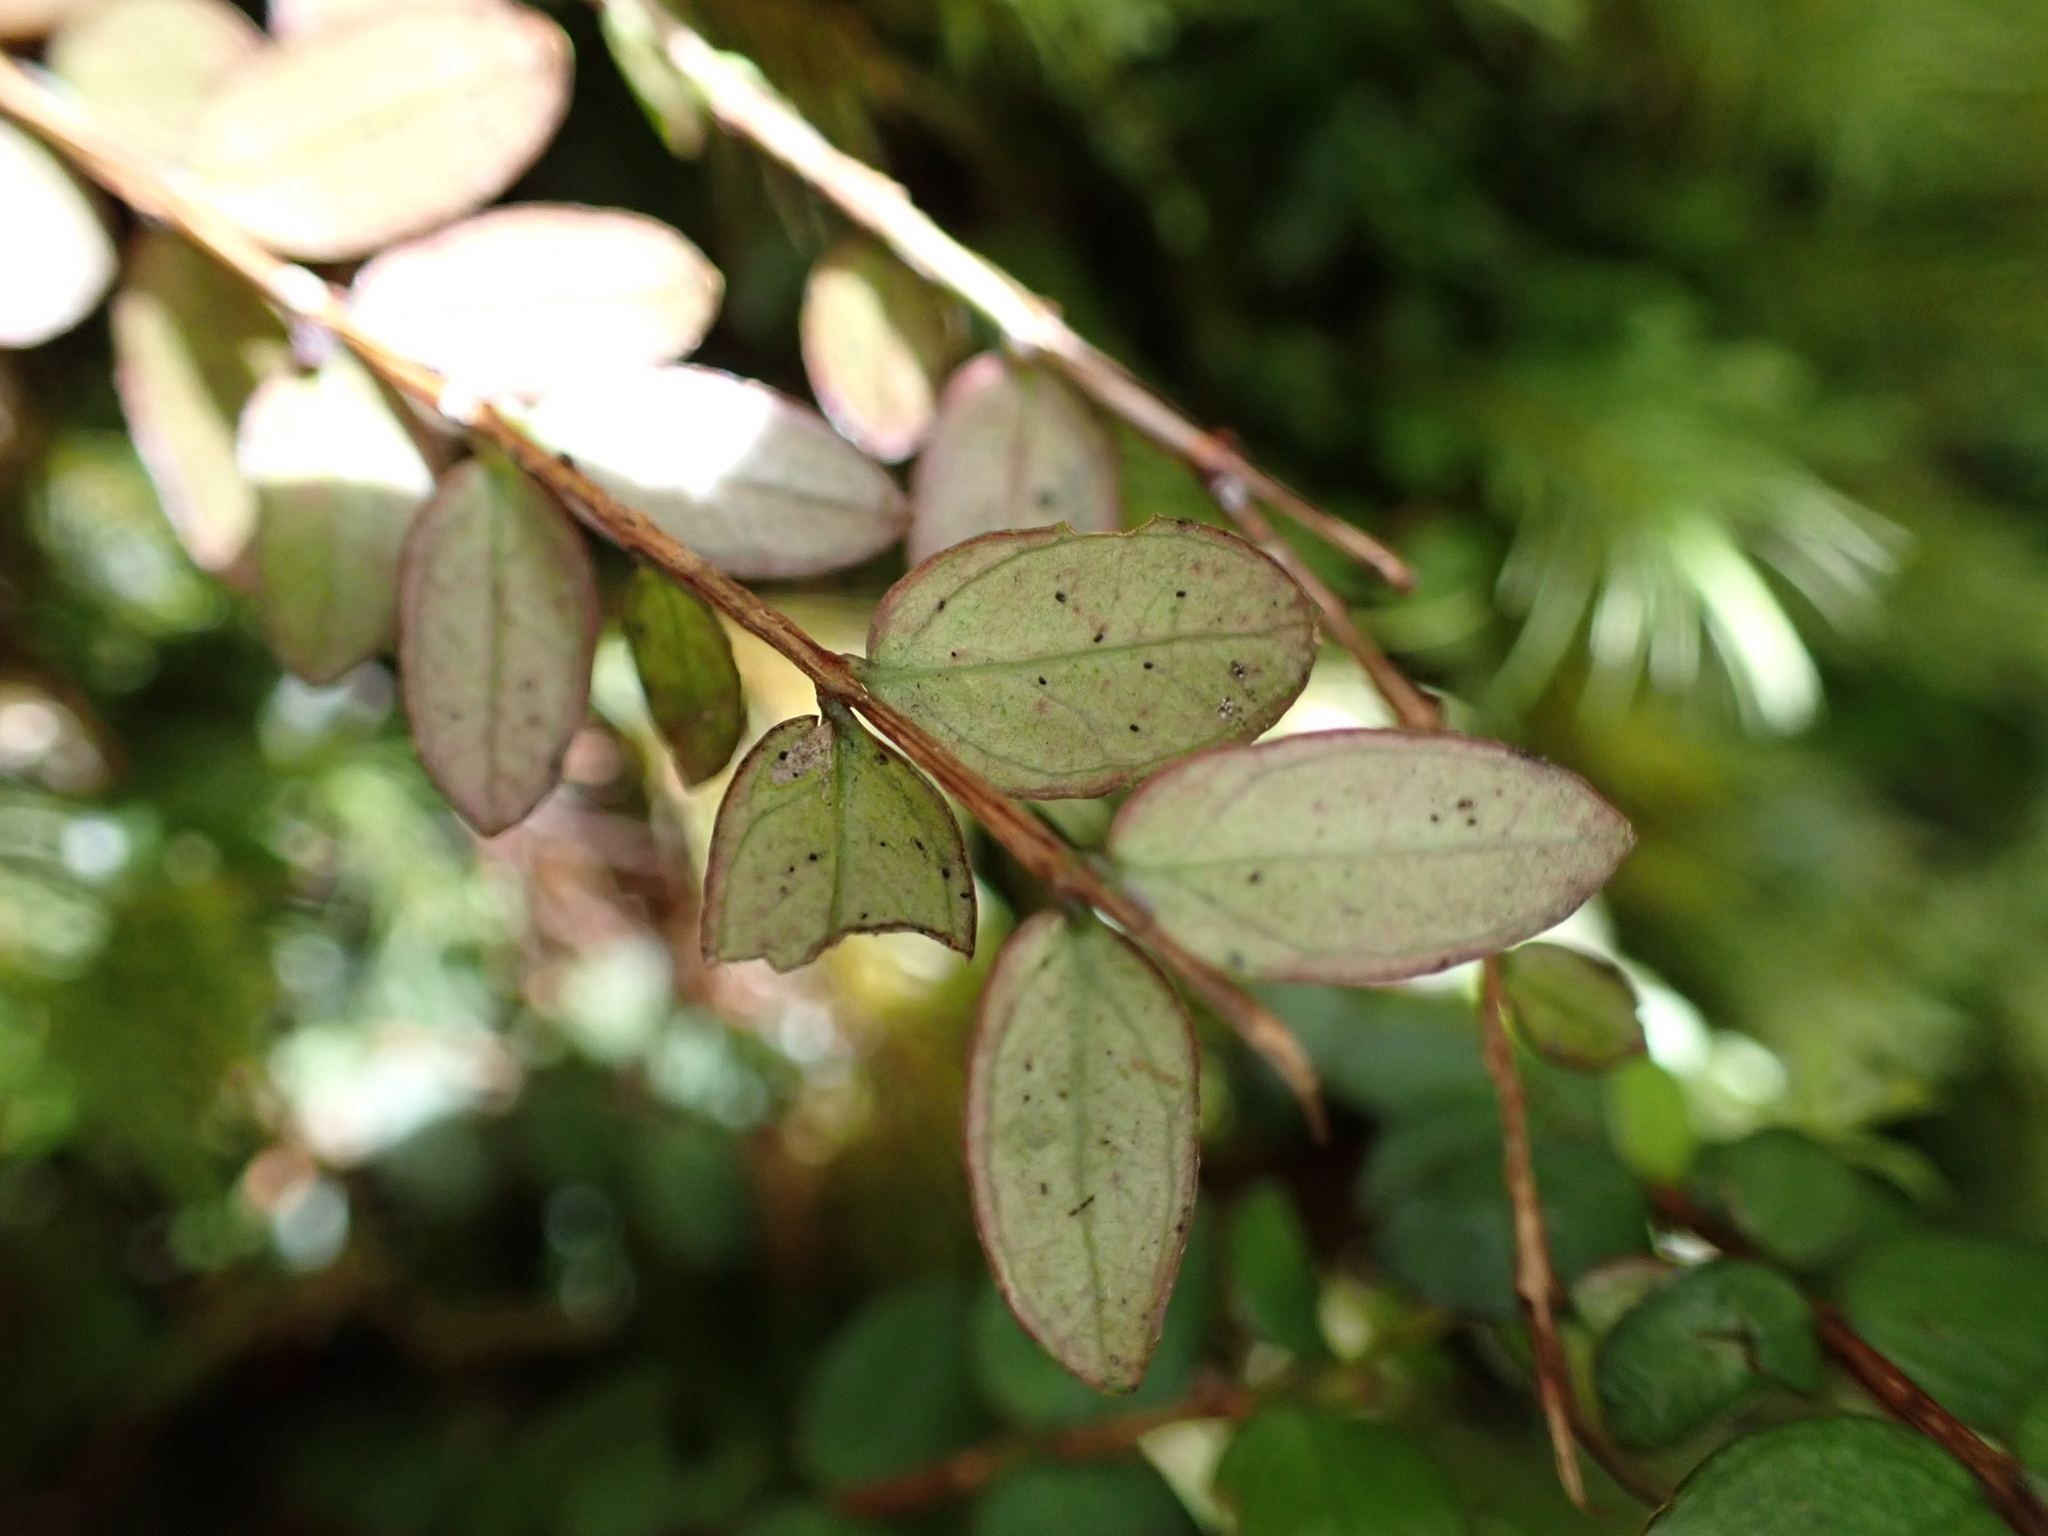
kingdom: Plantae
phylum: Tracheophyta
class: Magnoliopsida
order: Myrtales
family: Myrtaceae
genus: Metrosideros
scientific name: Metrosideros diffusa
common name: Small ratavine
